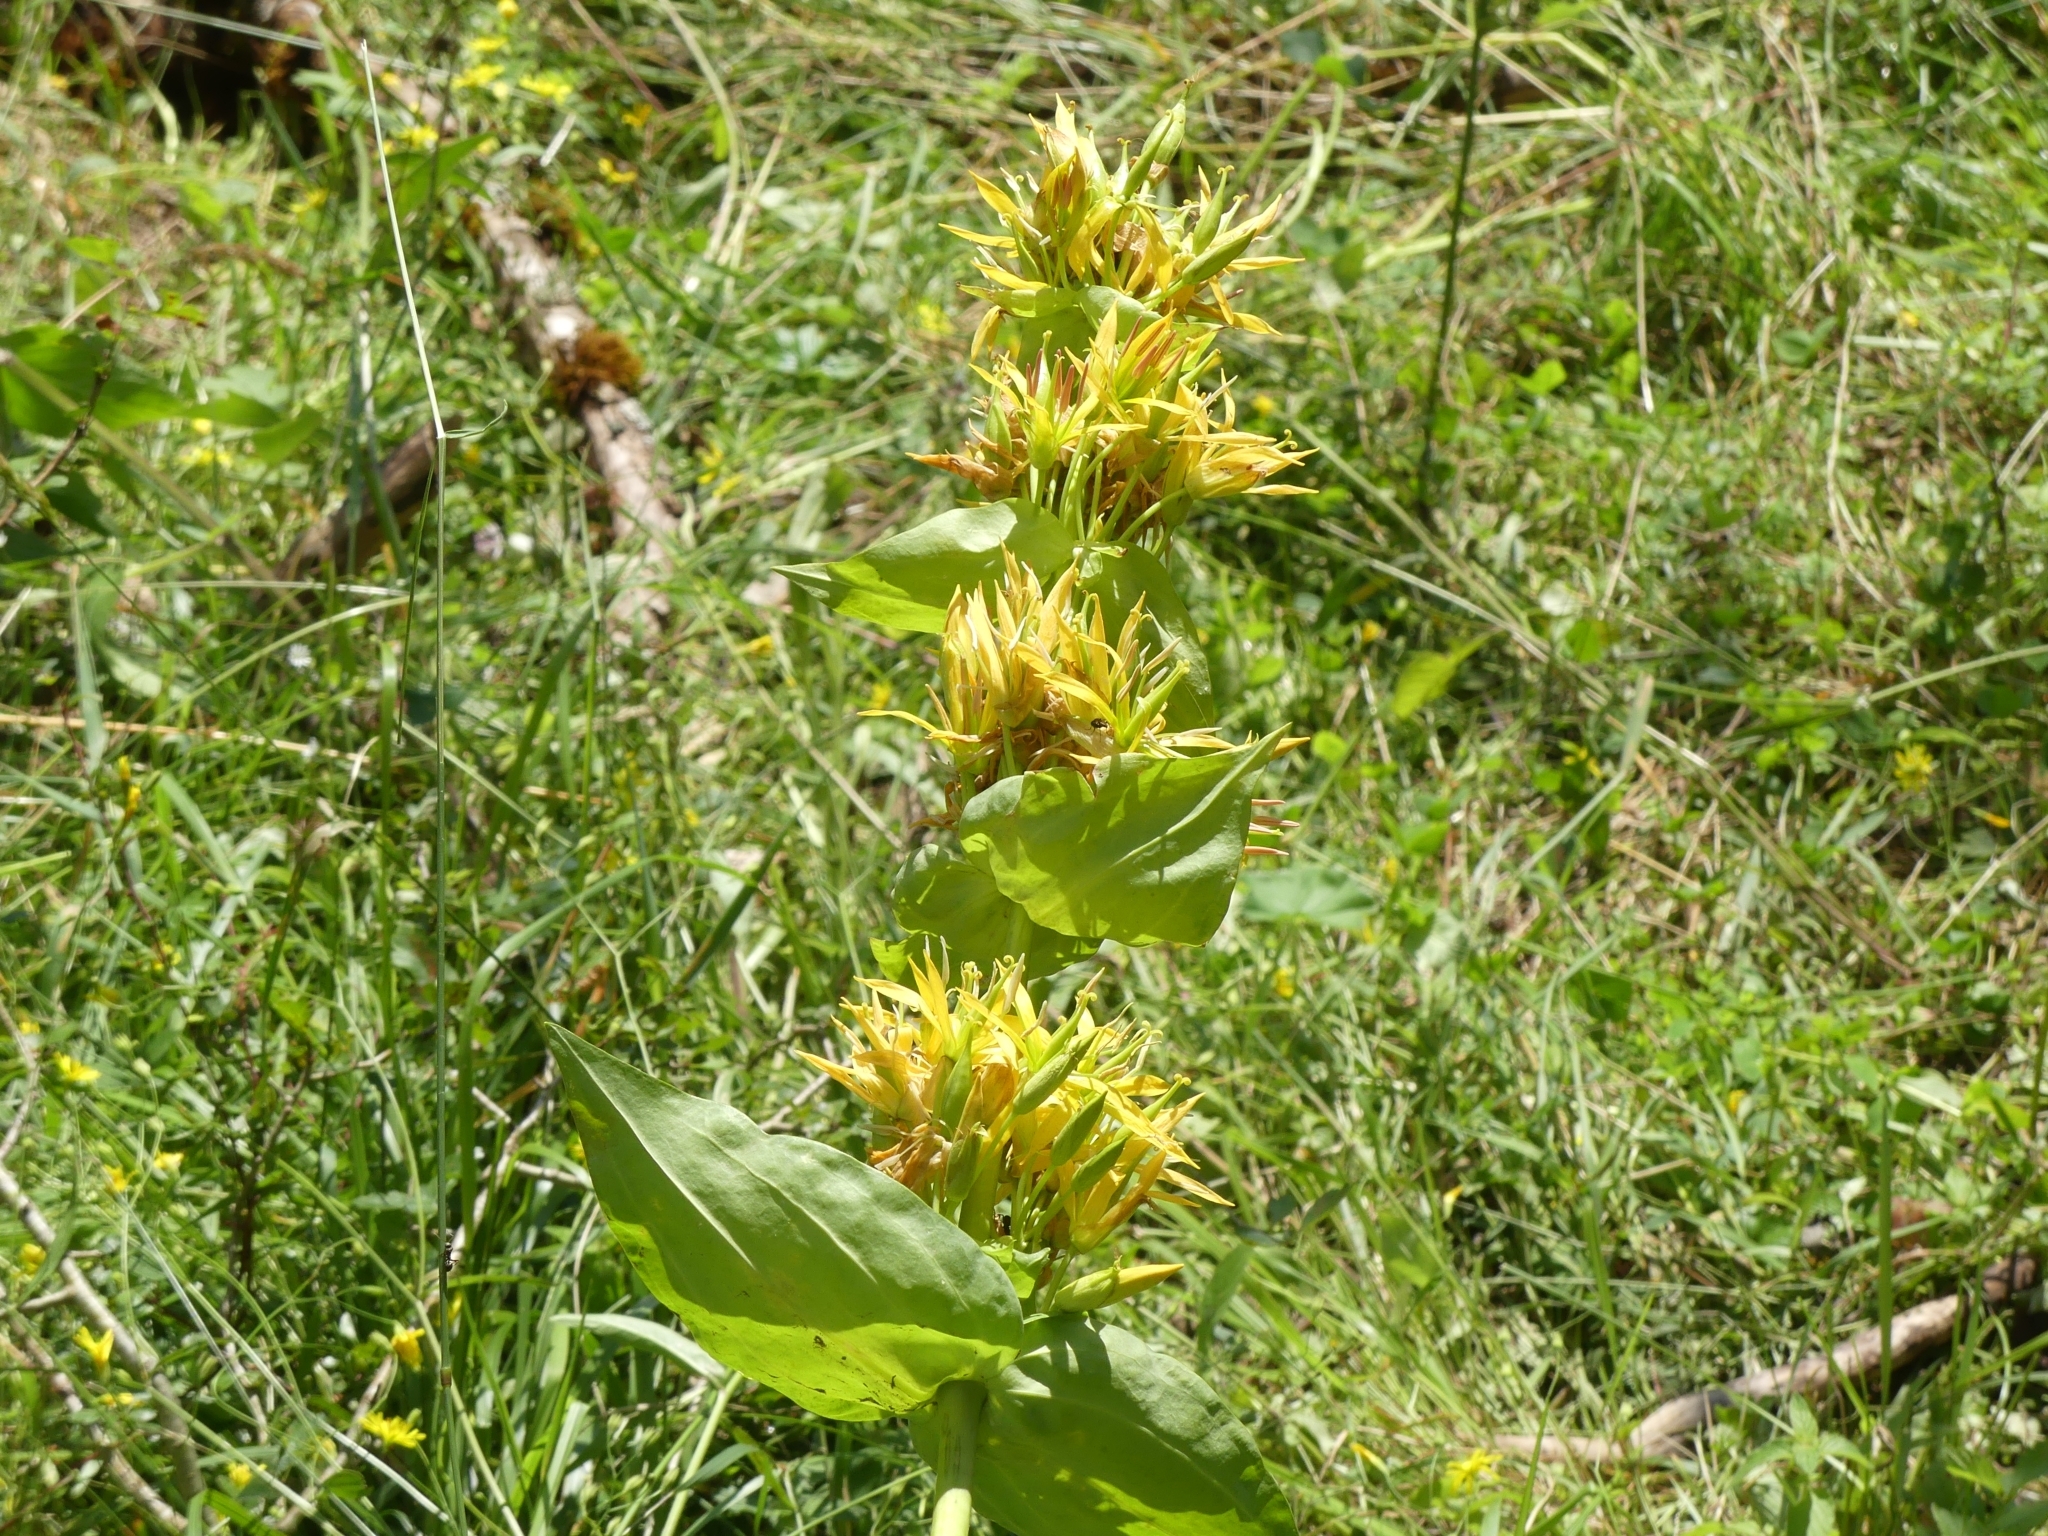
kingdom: Plantae
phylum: Tracheophyta
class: Magnoliopsida
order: Gentianales
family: Gentianaceae
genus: Gentiana
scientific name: Gentiana lutea
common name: Great yellow gentian
